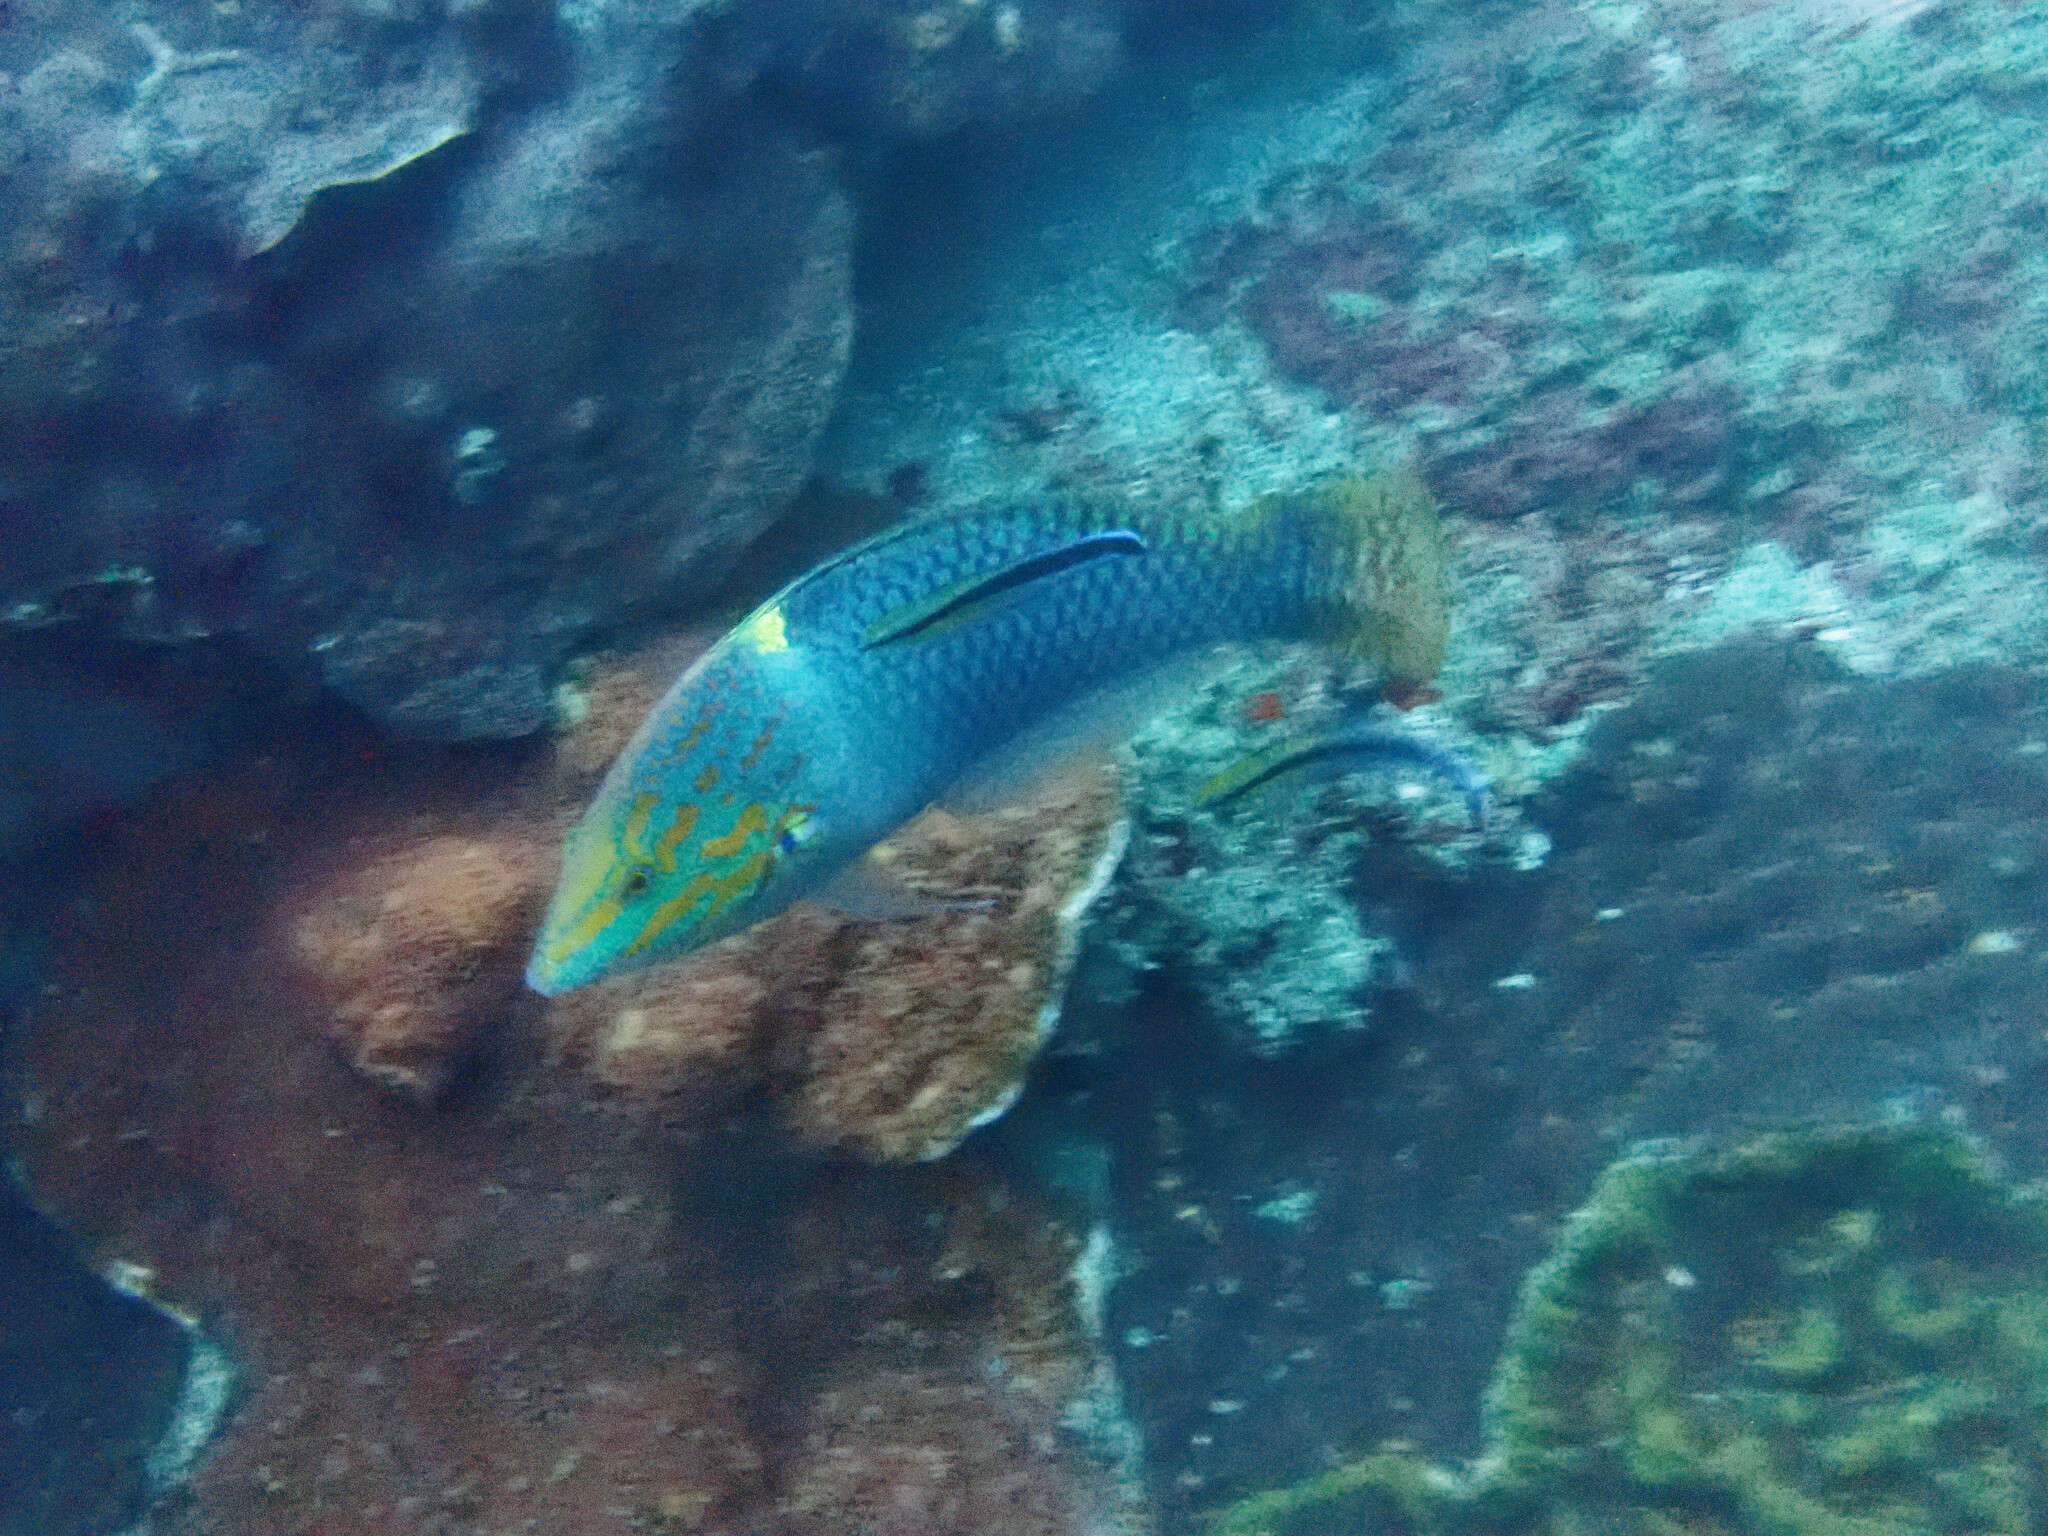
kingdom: Animalia
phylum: Chordata
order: Perciformes
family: Labridae
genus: Halichoeres
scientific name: Halichoeres hortulanus
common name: Checkerboard wrasse
